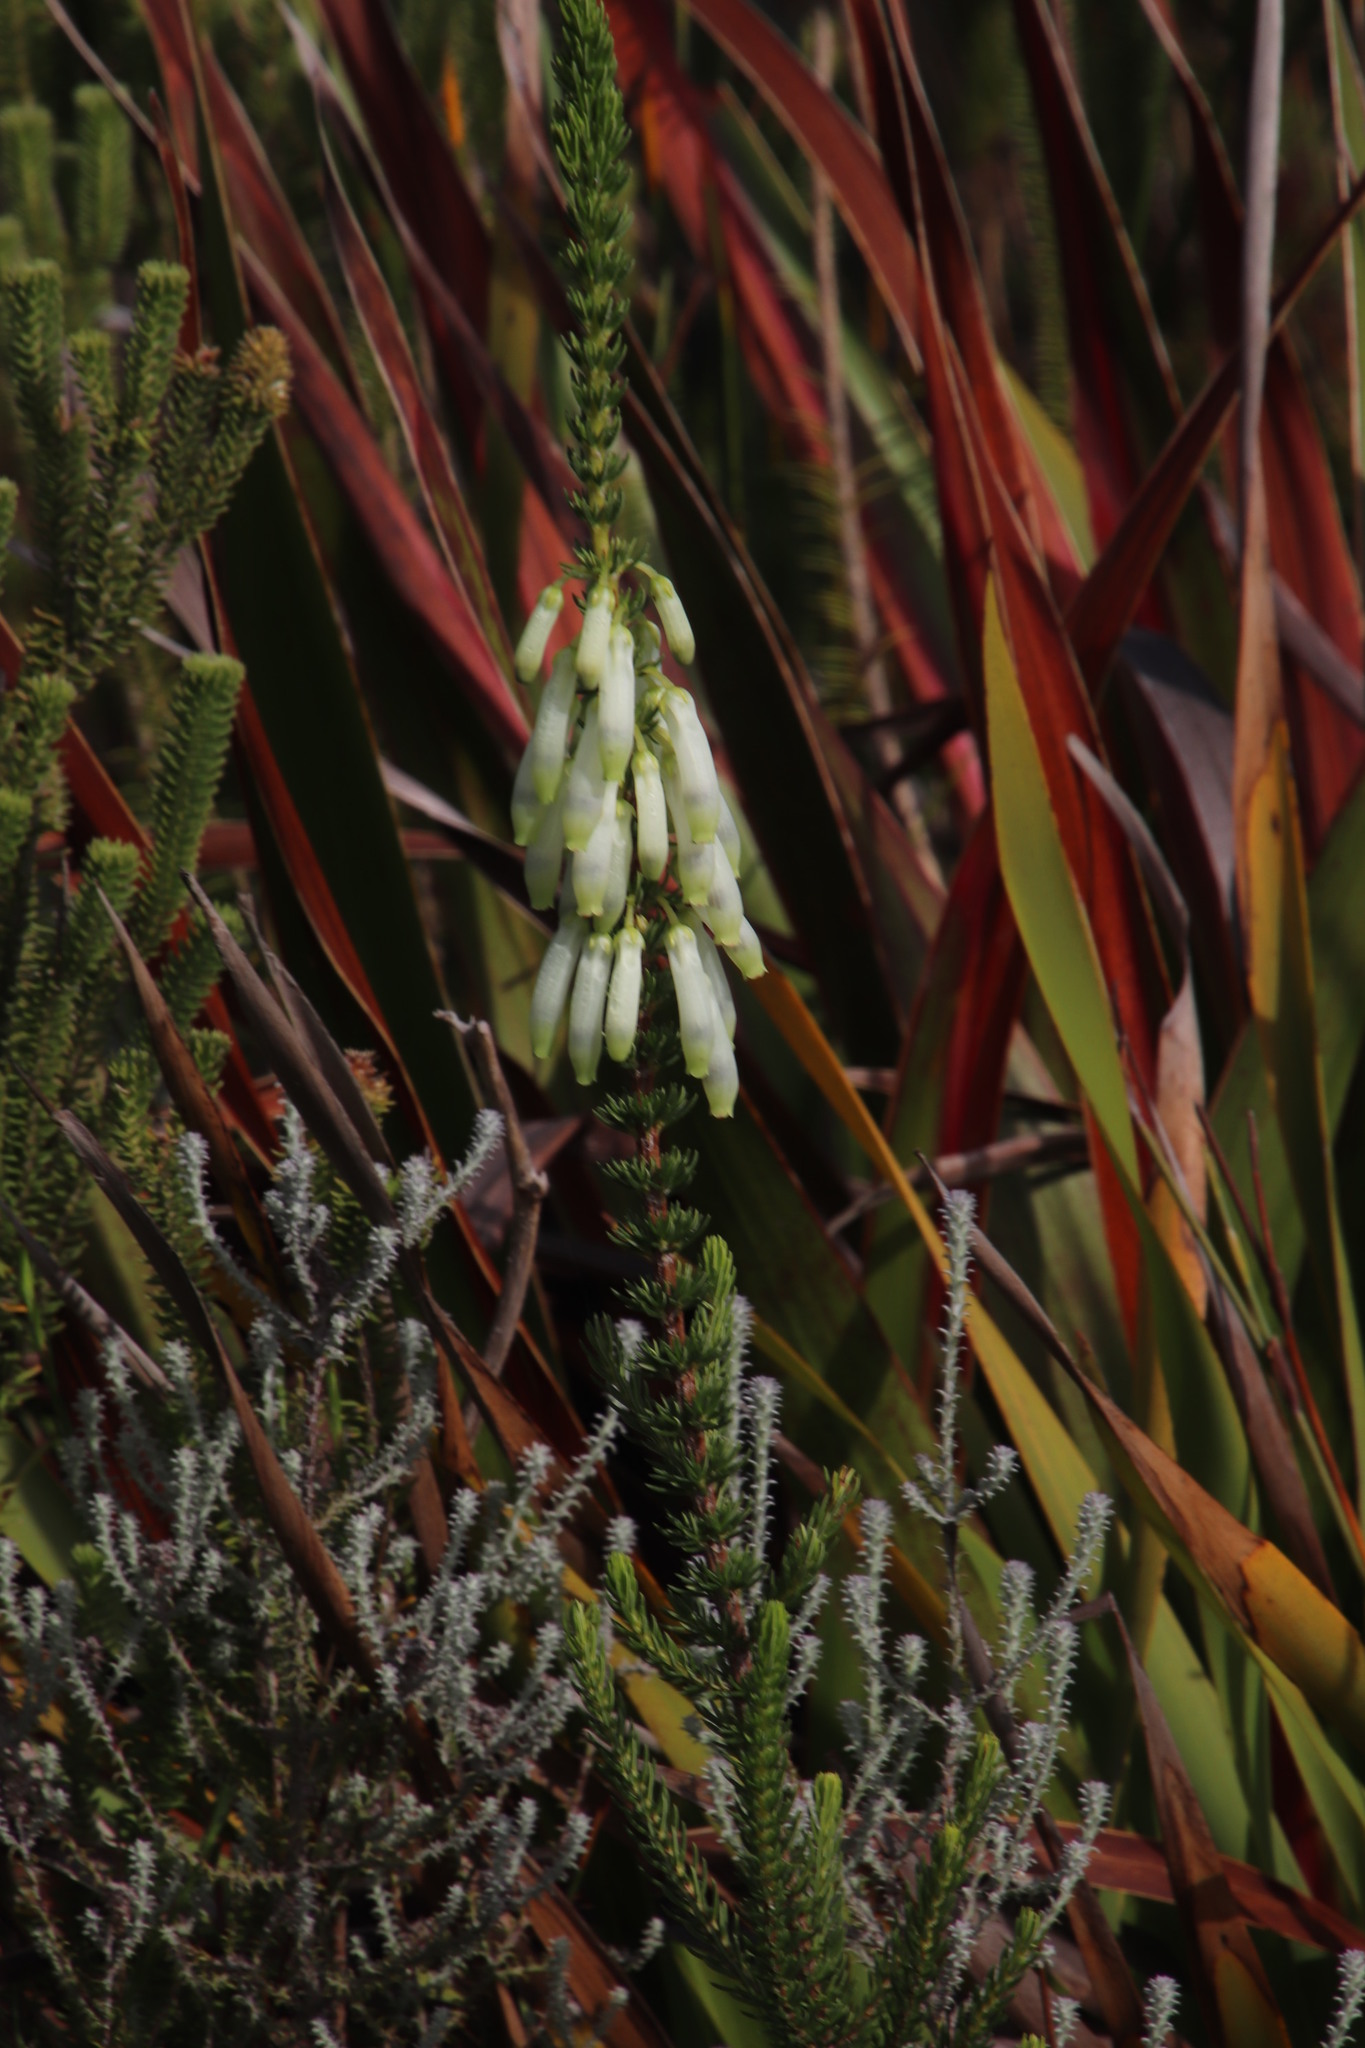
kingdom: Plantae
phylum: Tracheophyta
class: Magnoliopsida
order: Ericales
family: Ericaceae
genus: Erica
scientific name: Erica mammosa
